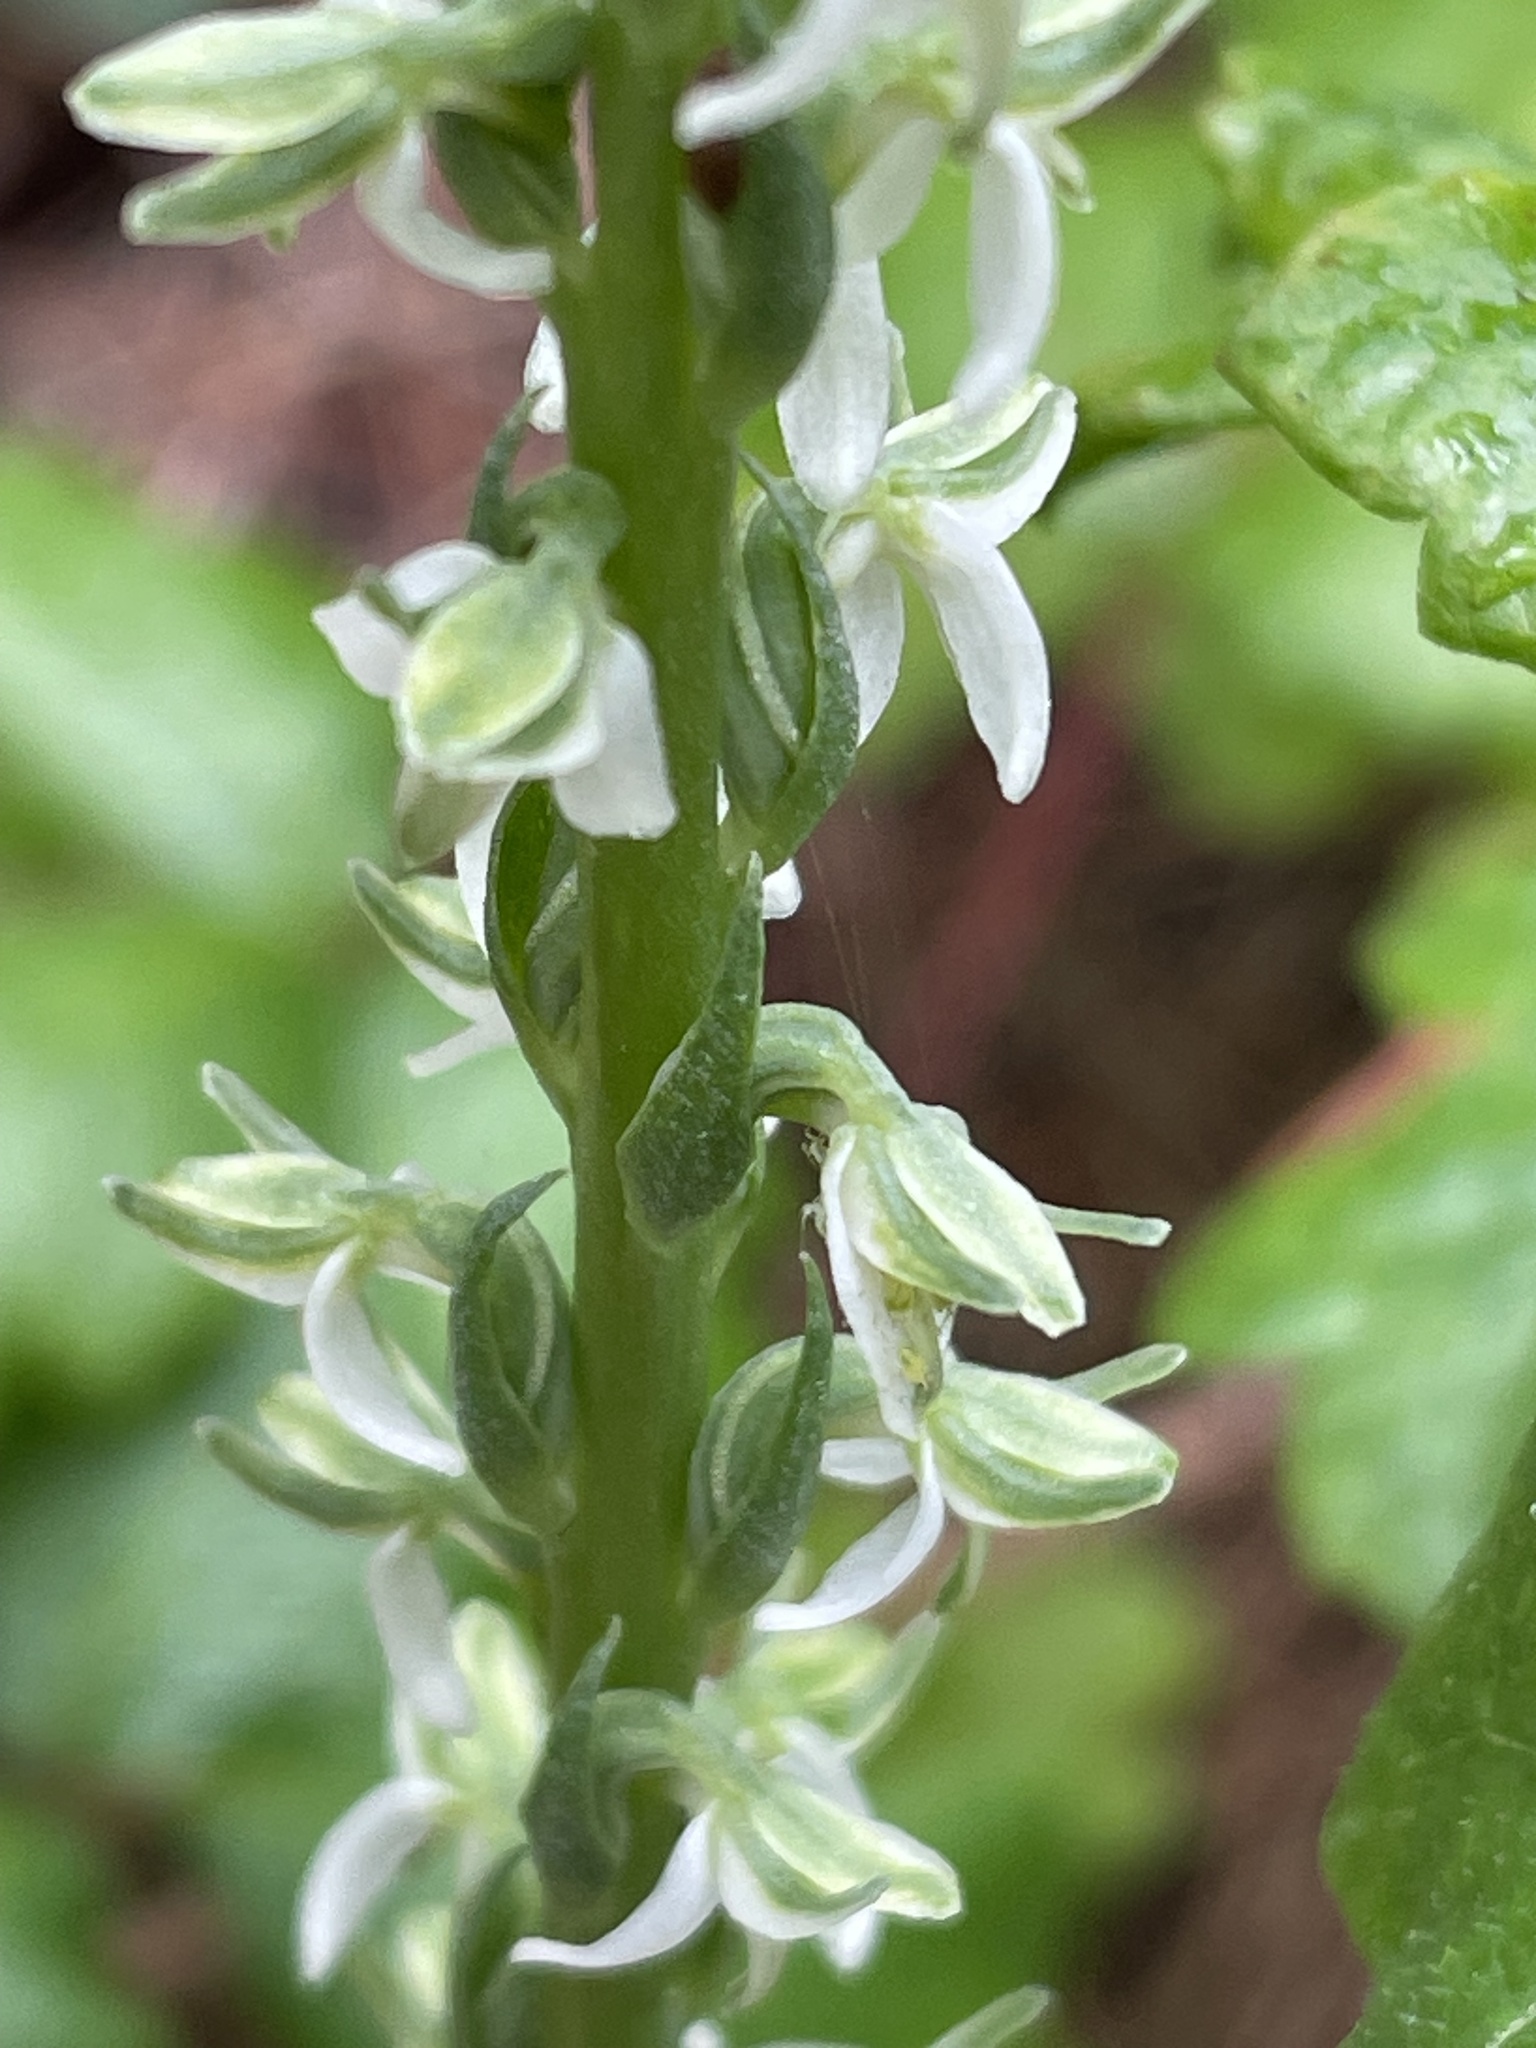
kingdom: Plantae
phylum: Tracheophyta
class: Liliopsida
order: Asparagales
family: Orchidaceae
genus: Platanthera
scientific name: Platanthera yadonii
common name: Yadon’s piperia
